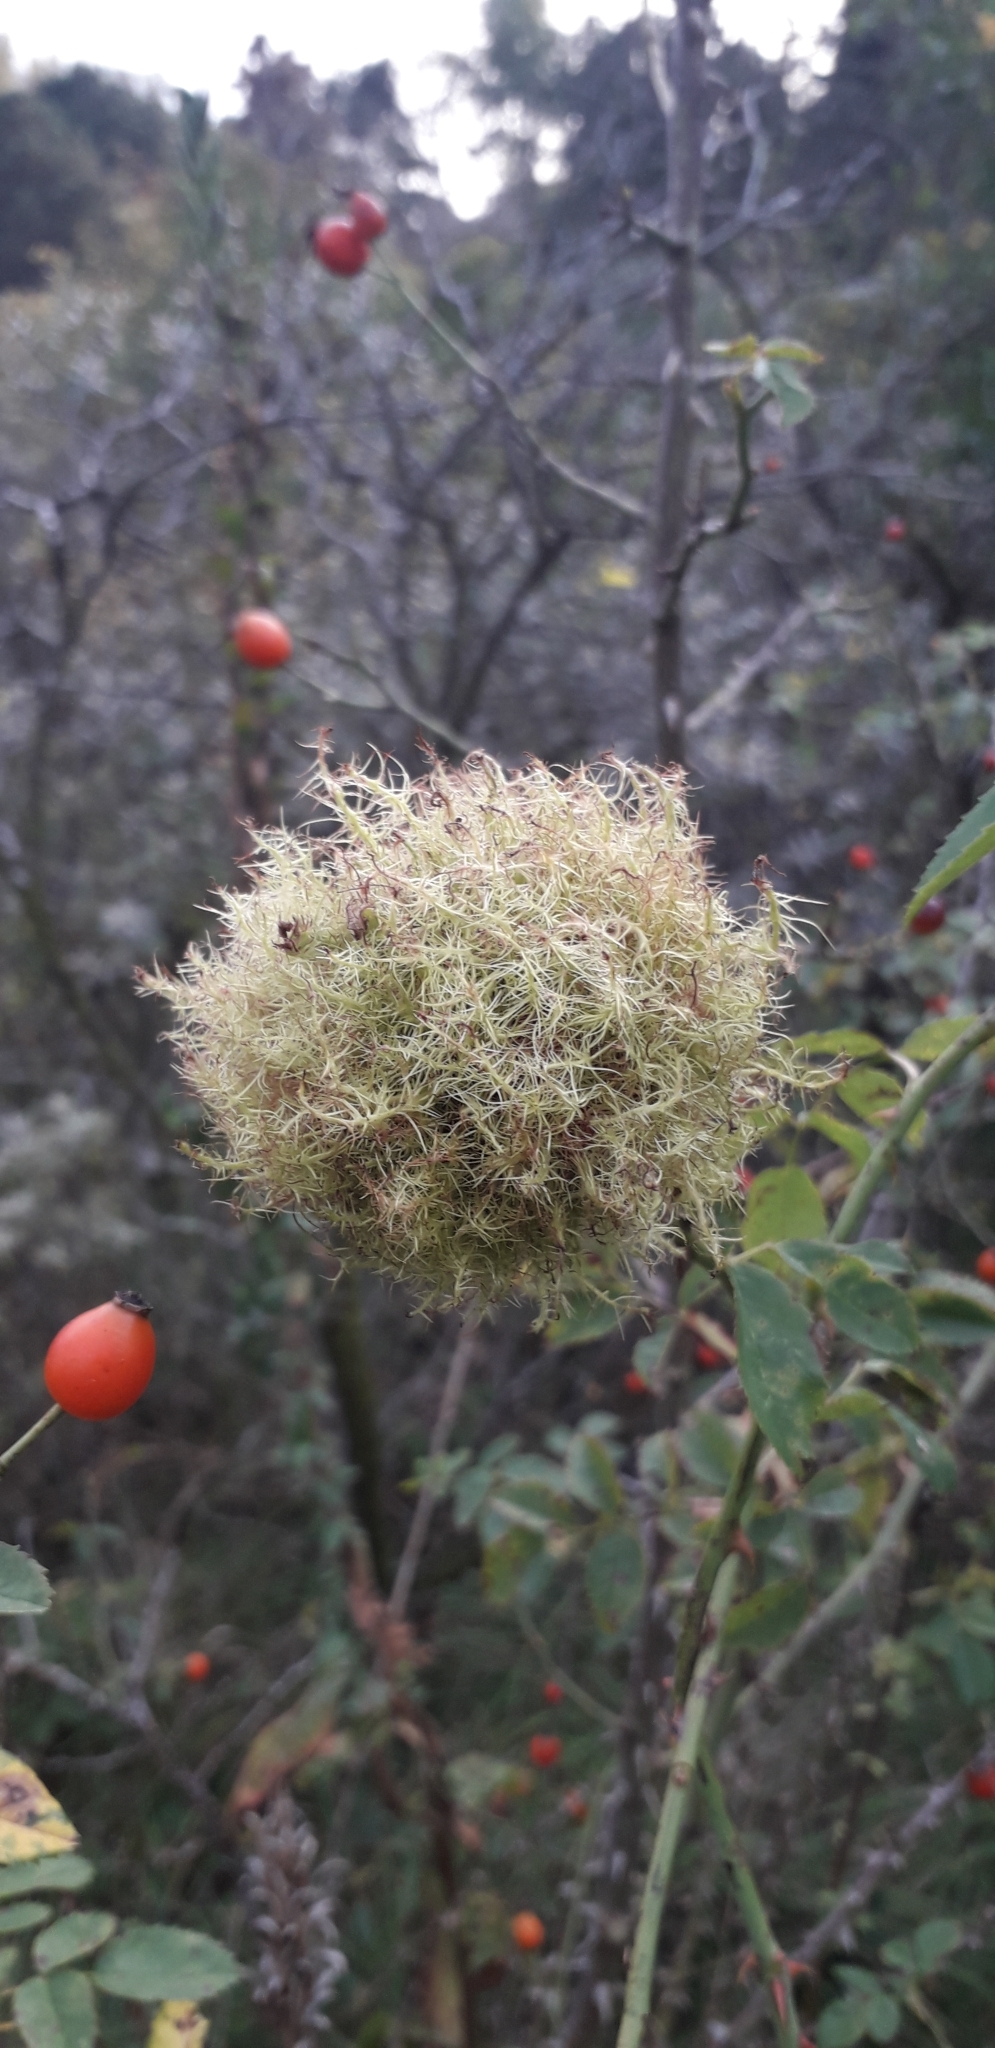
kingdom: Animalia
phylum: Arthropoda
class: Insecta
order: Hymenoptera
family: Cynipidae
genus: Diplolepis
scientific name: Diplolepis rosae
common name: Bedeguar gall
